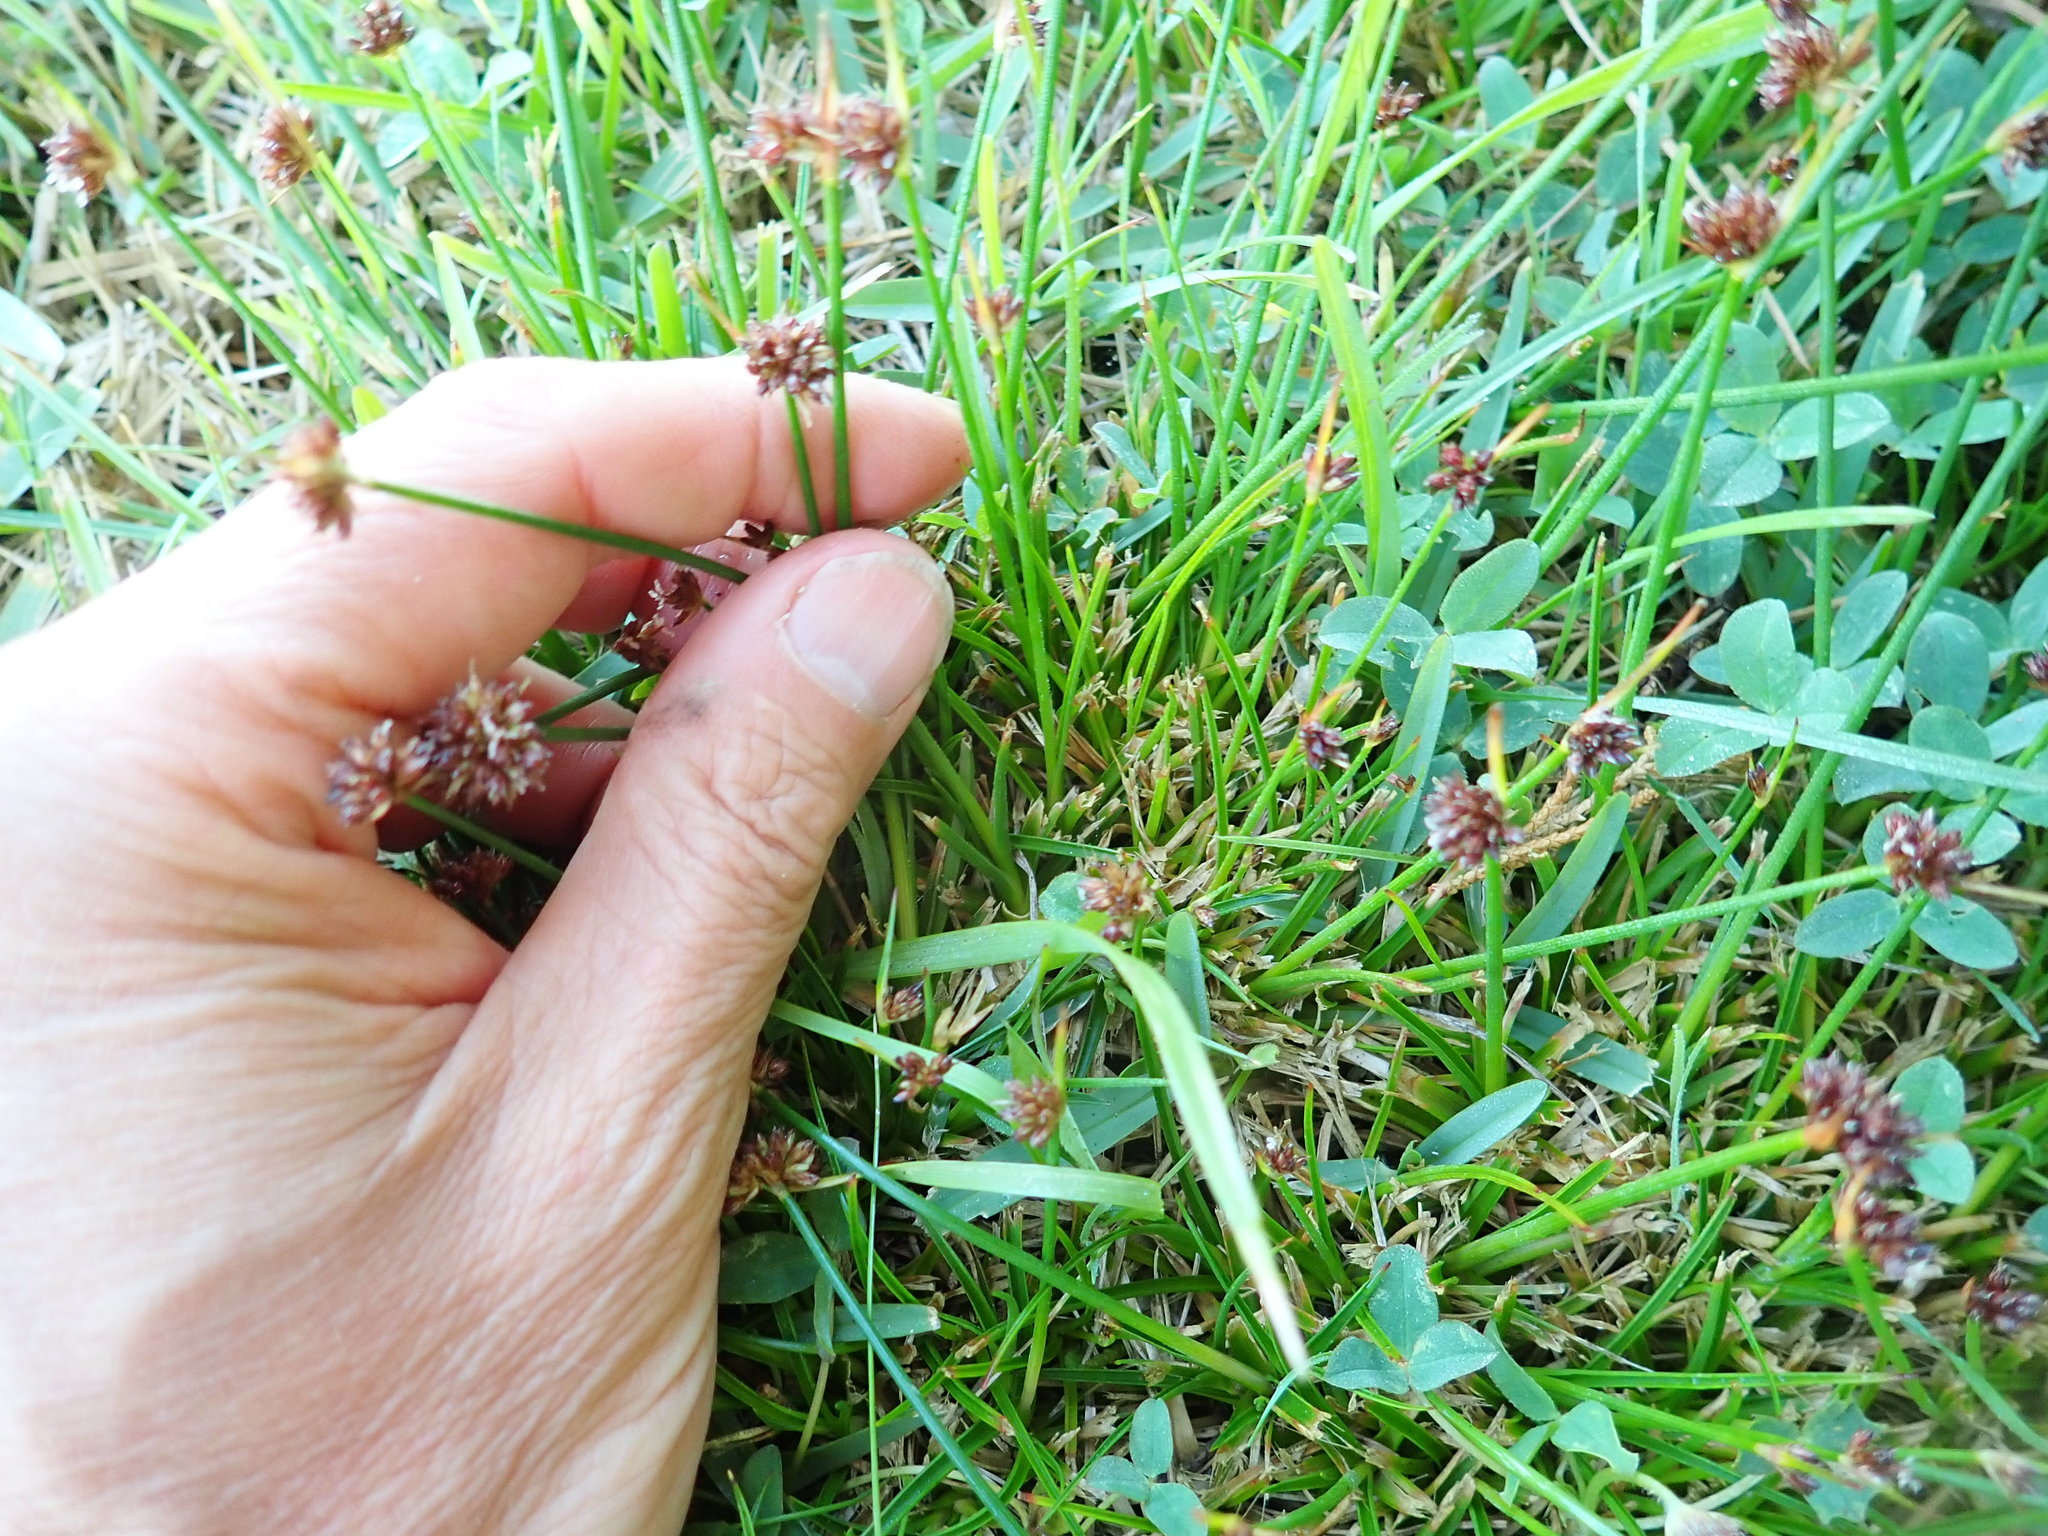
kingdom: Plantae
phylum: Tracheophyta
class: Liliopsida
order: Poales
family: Juncaceae
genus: Juncus
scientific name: Juncus caespiticius
